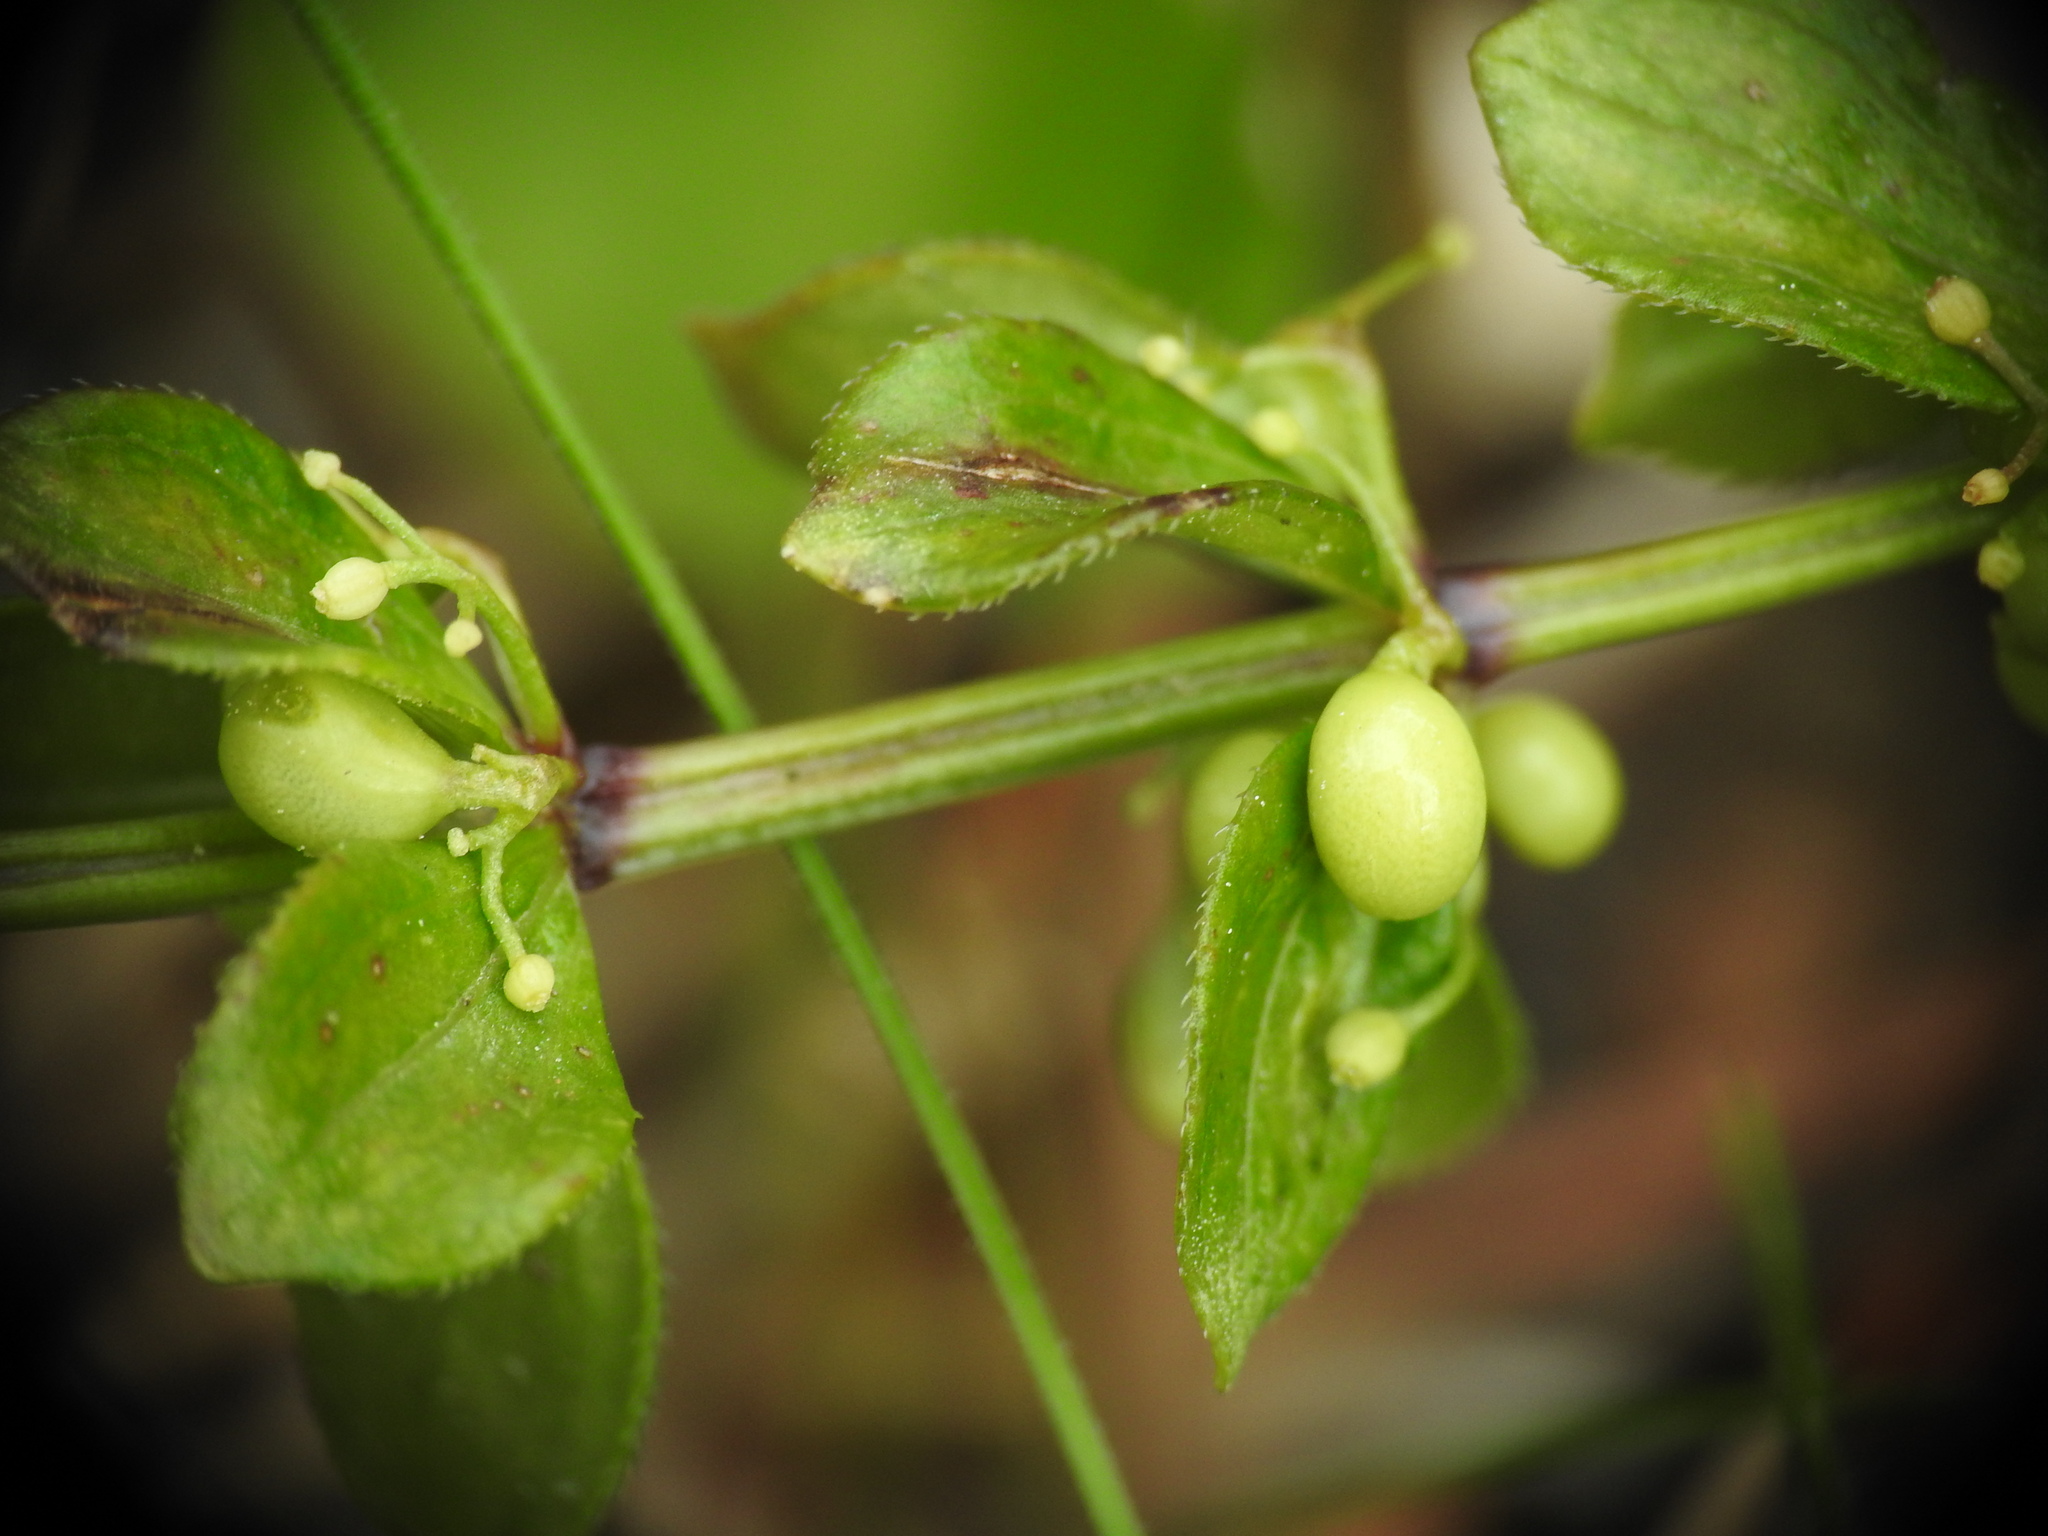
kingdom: Plantae
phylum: Tracheophyta
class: Magnoliopsida
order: Gentianales
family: Rubiaceae
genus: Rubia
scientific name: Rubia peregrina
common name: Wild madder
